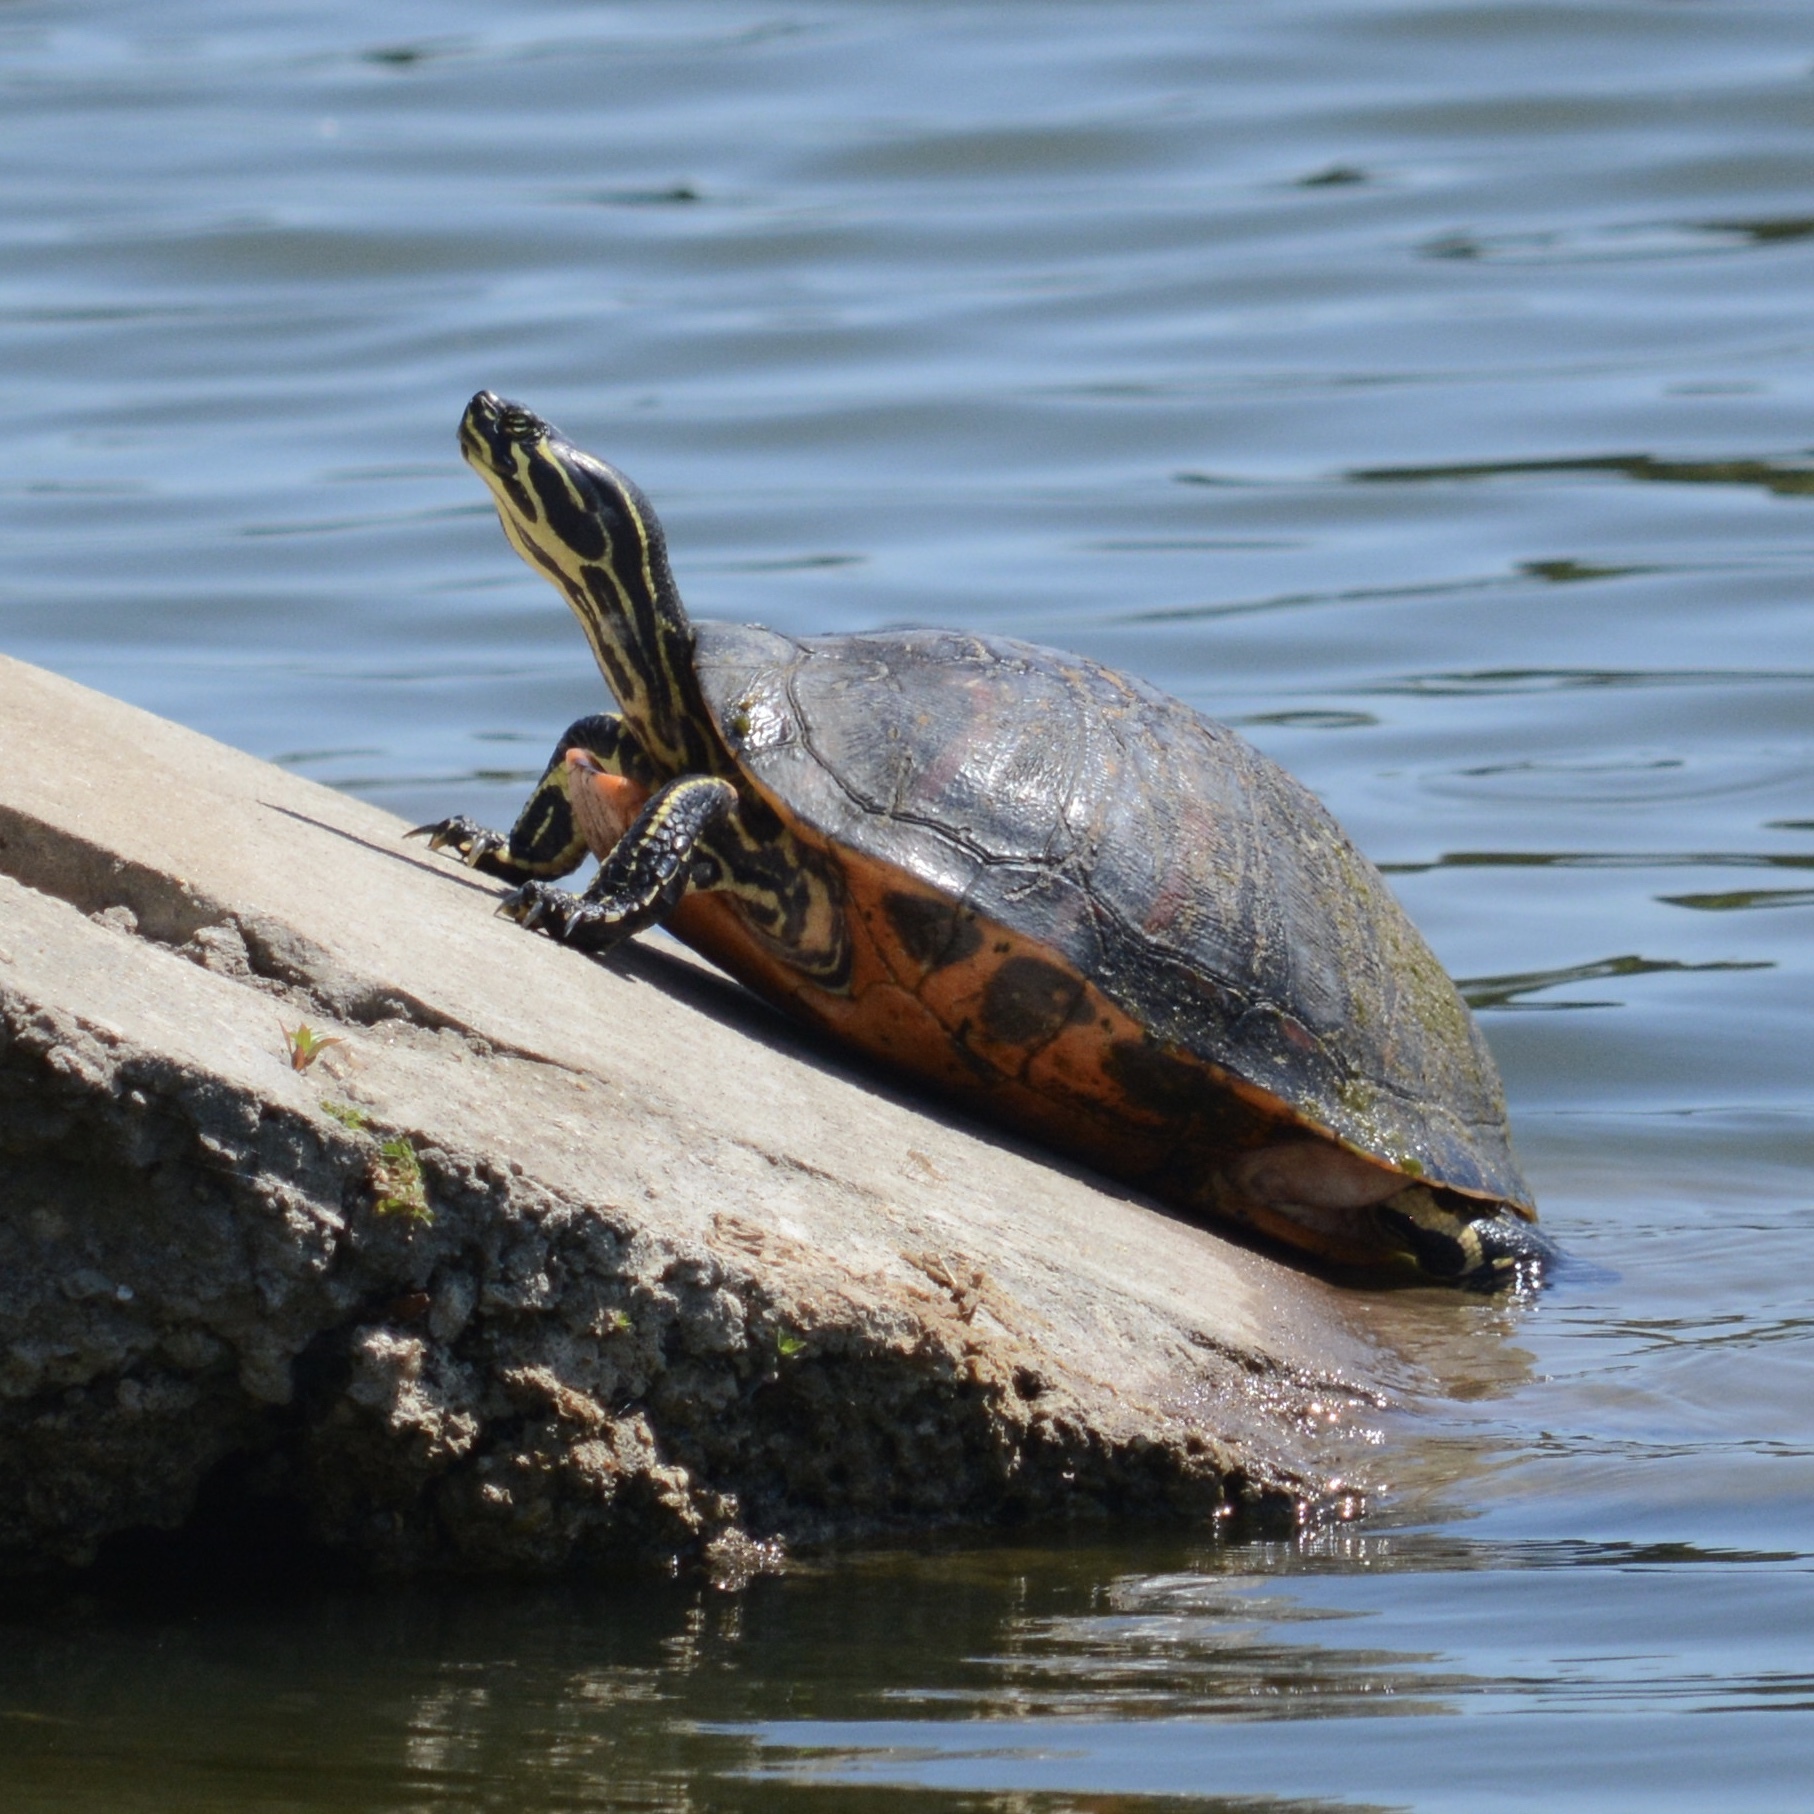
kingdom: Animalia
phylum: Chordata
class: Testudines
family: Emydidae
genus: Pseudemys
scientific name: Pseudemys nelsoni
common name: Florida red-bellied turtle
